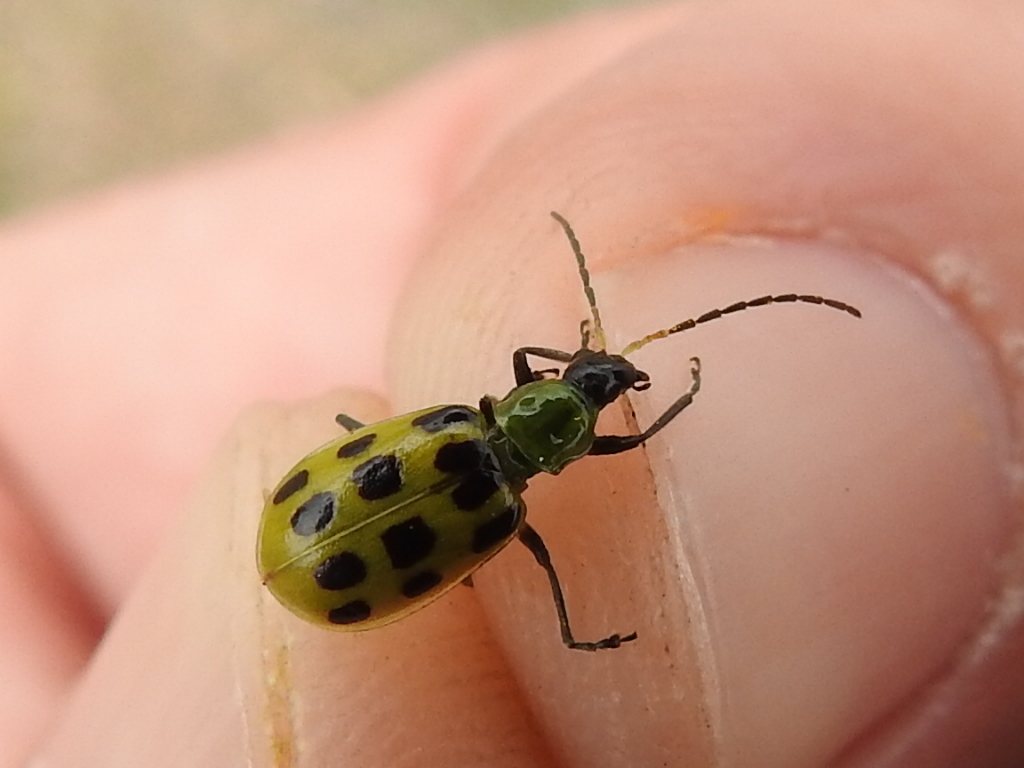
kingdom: Animalia
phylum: Arthropoda
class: Insecta
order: Coleoptera
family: Chrysomelidae
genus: Diabrotica
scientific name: Diabrotica undecimpunctata
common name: Spotted cucumber beetle
